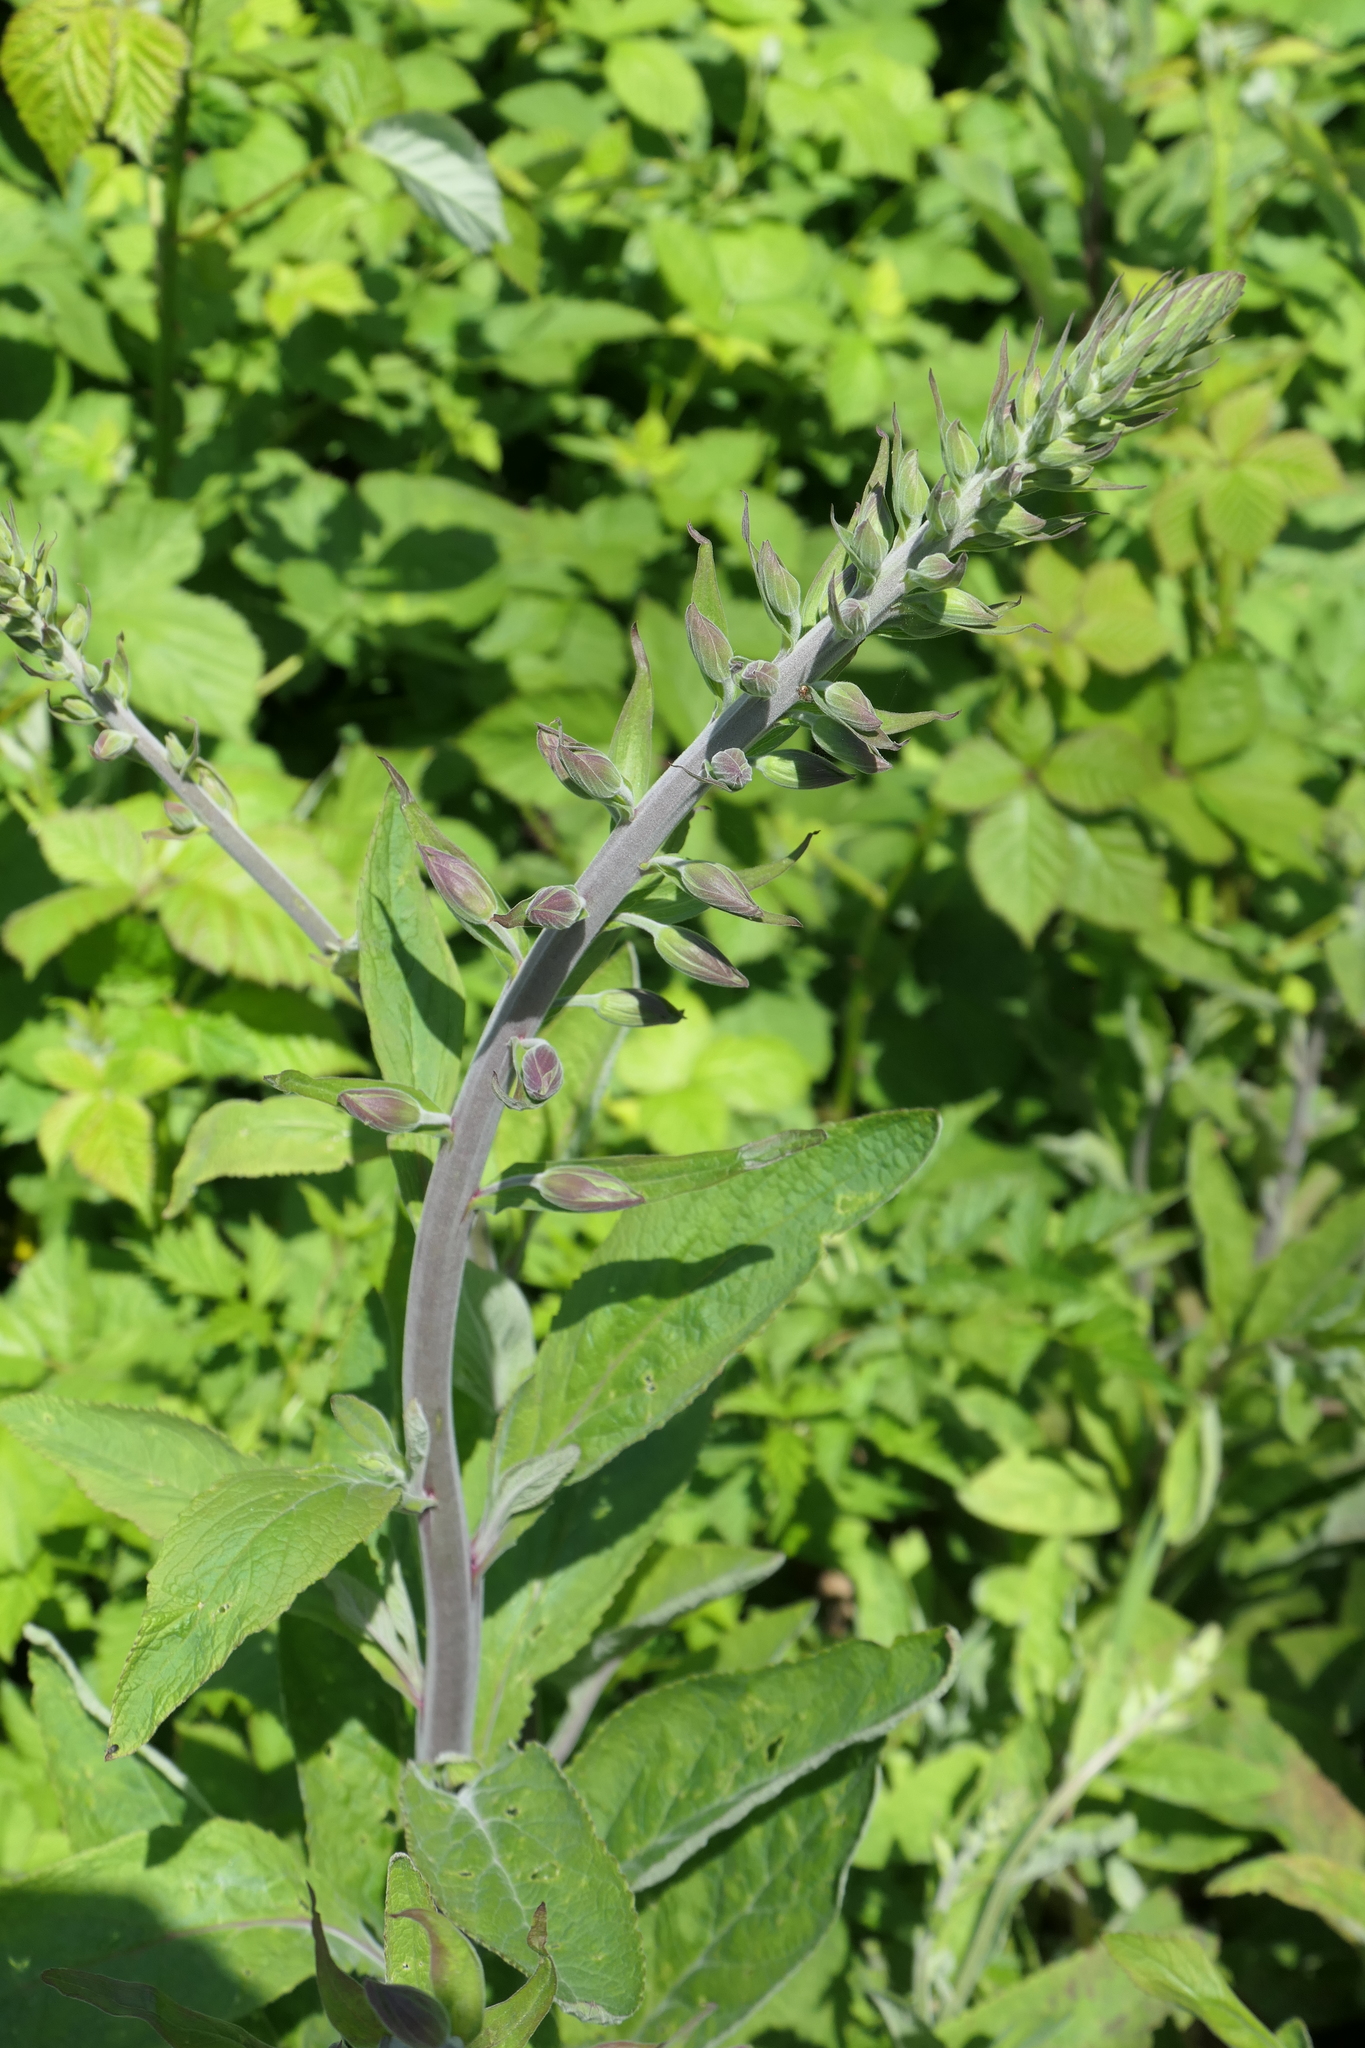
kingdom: Plantae
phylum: Tracheophyta
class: Magnoliopsida
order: Lamiales
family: Plantaginaceae
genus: Digitalis
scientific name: Digitalis purpurea
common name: Foxglove
